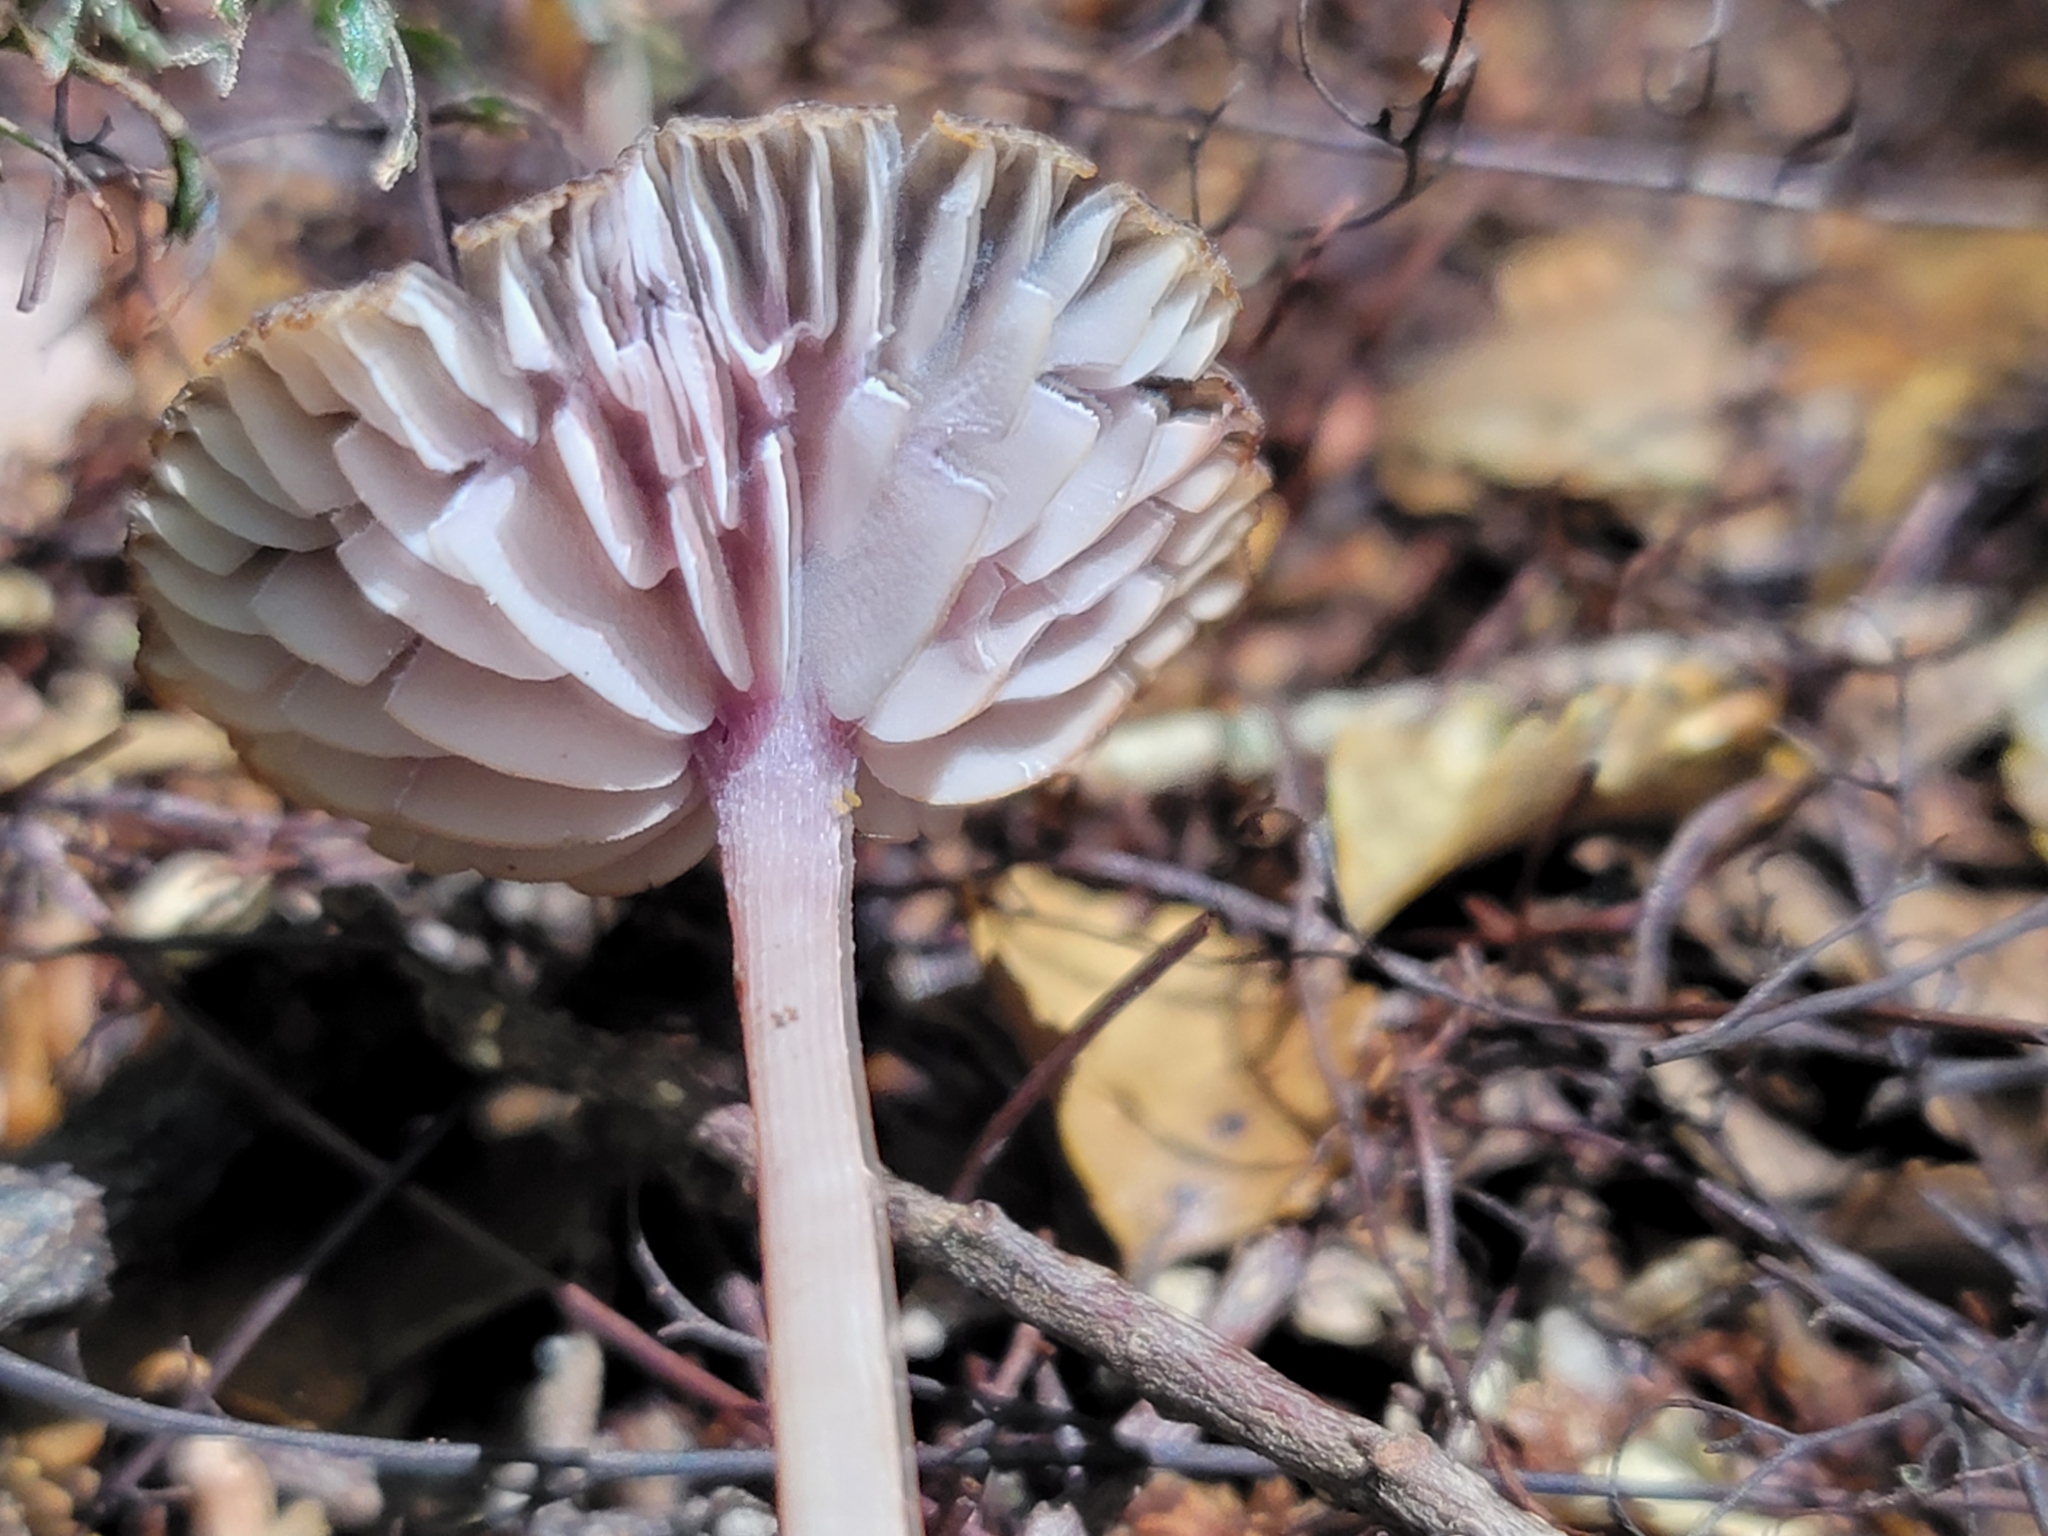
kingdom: Fungi
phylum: Basidiomycota
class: Agaricomycetes
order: Agaricales
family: Hydnangiaceae
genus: Laccaria
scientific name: Laccaria masoniae
